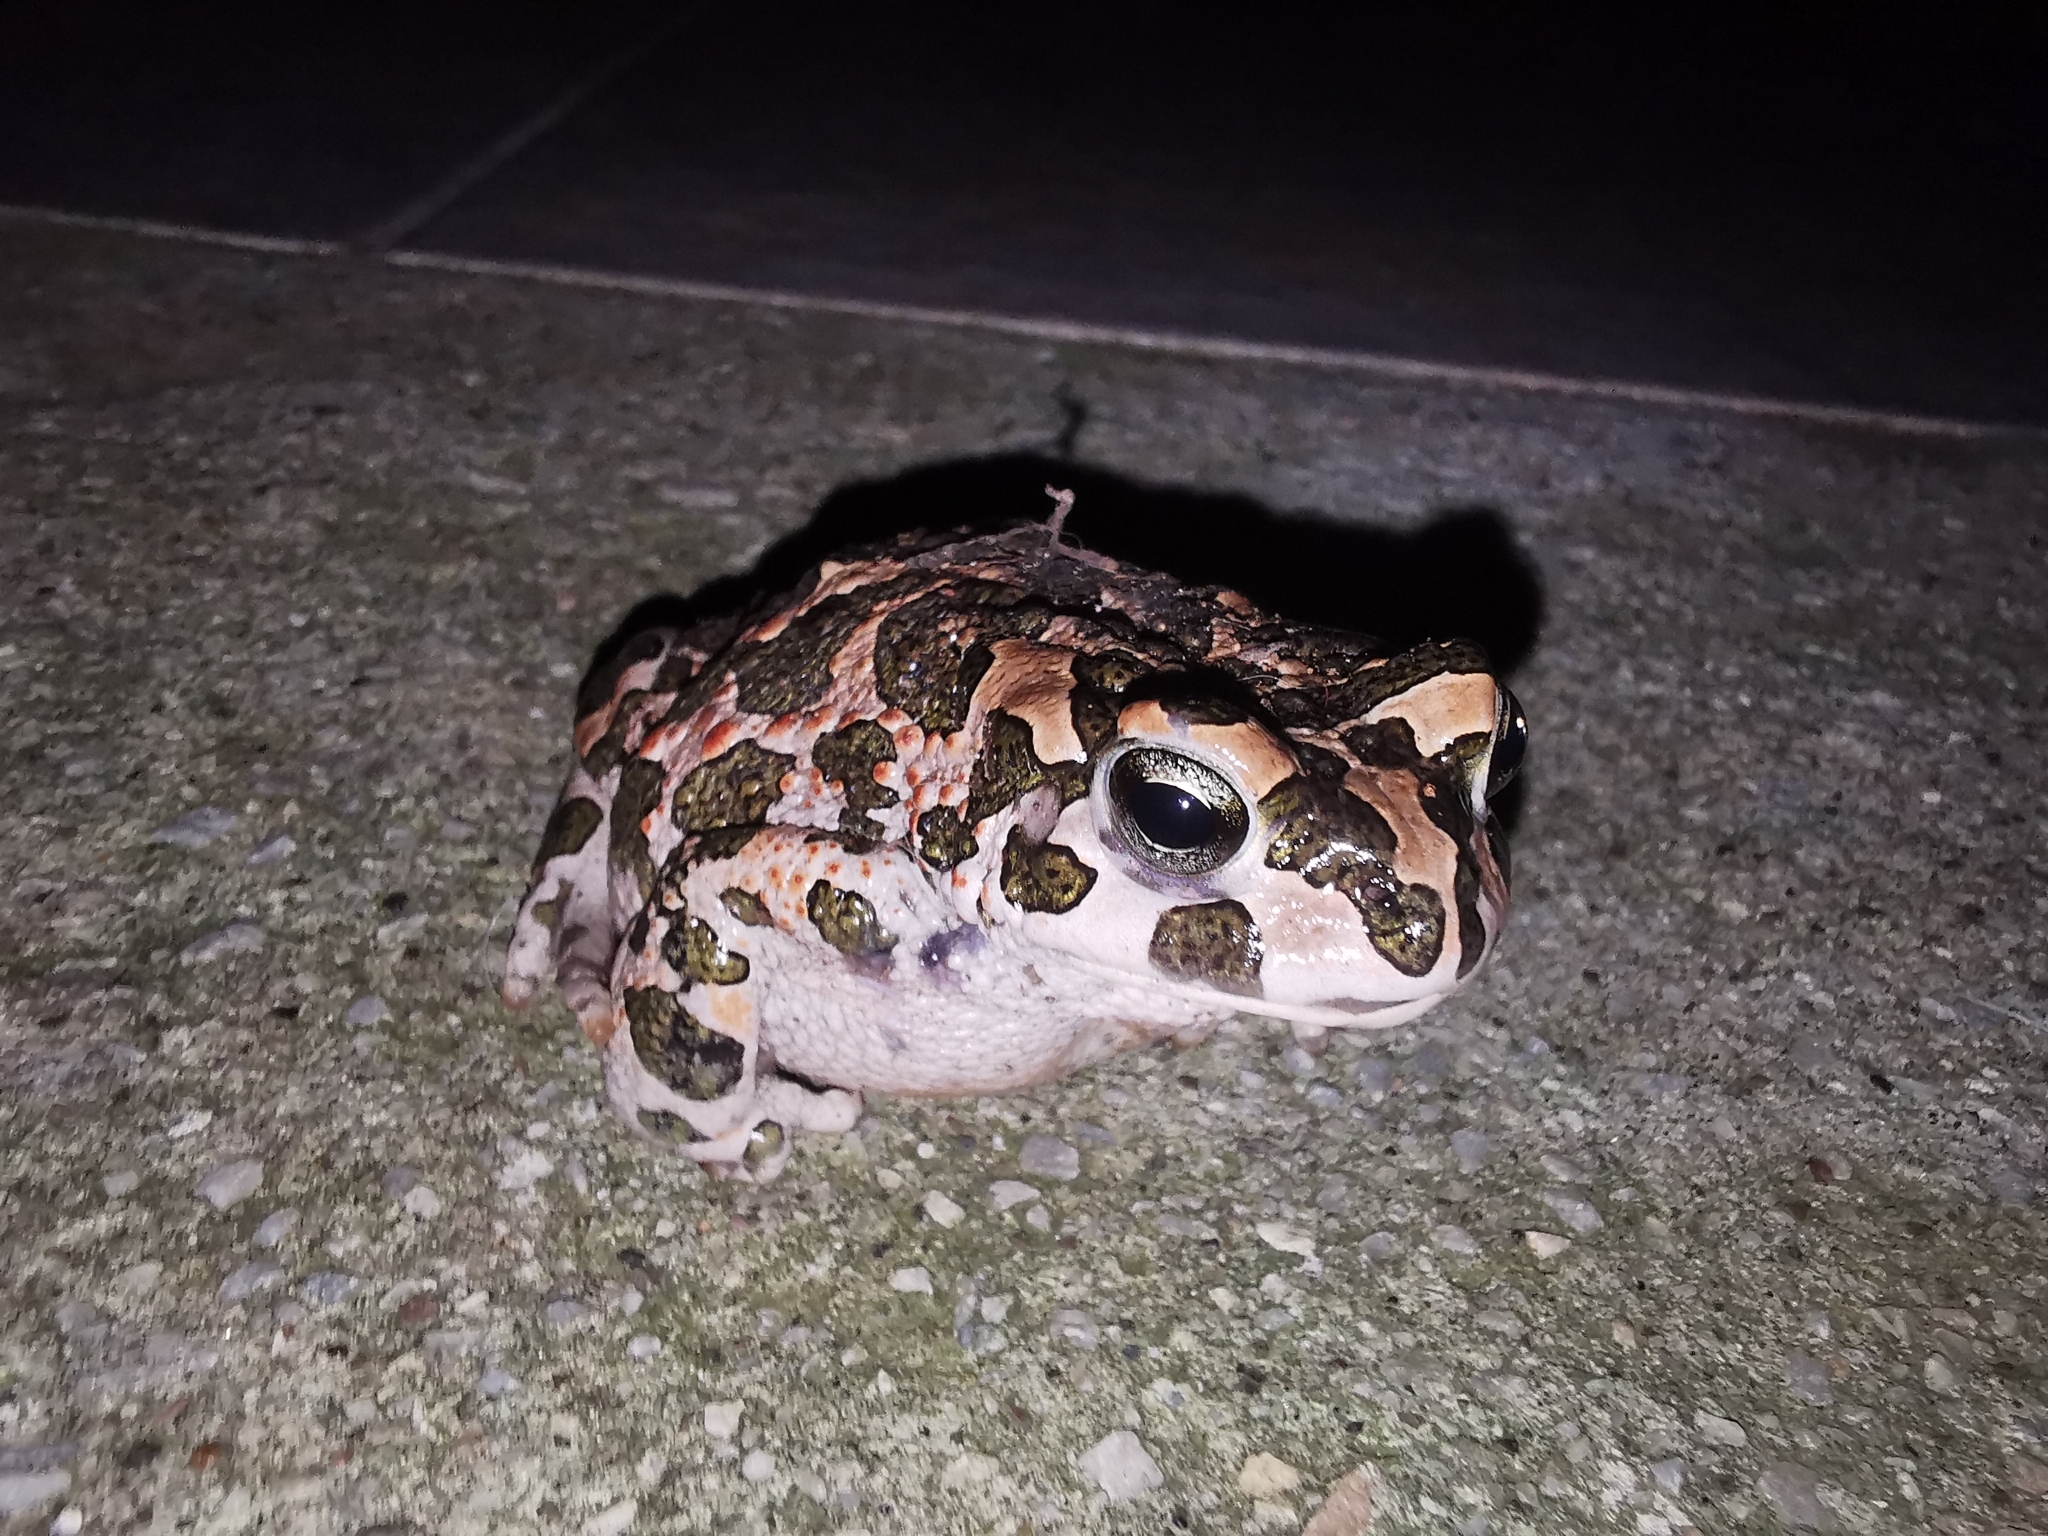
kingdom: Animalia
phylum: Chordata
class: Amphibia
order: Anura
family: Bufonidae
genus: Bufotes
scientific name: Bufotes viridis
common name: European green toad
